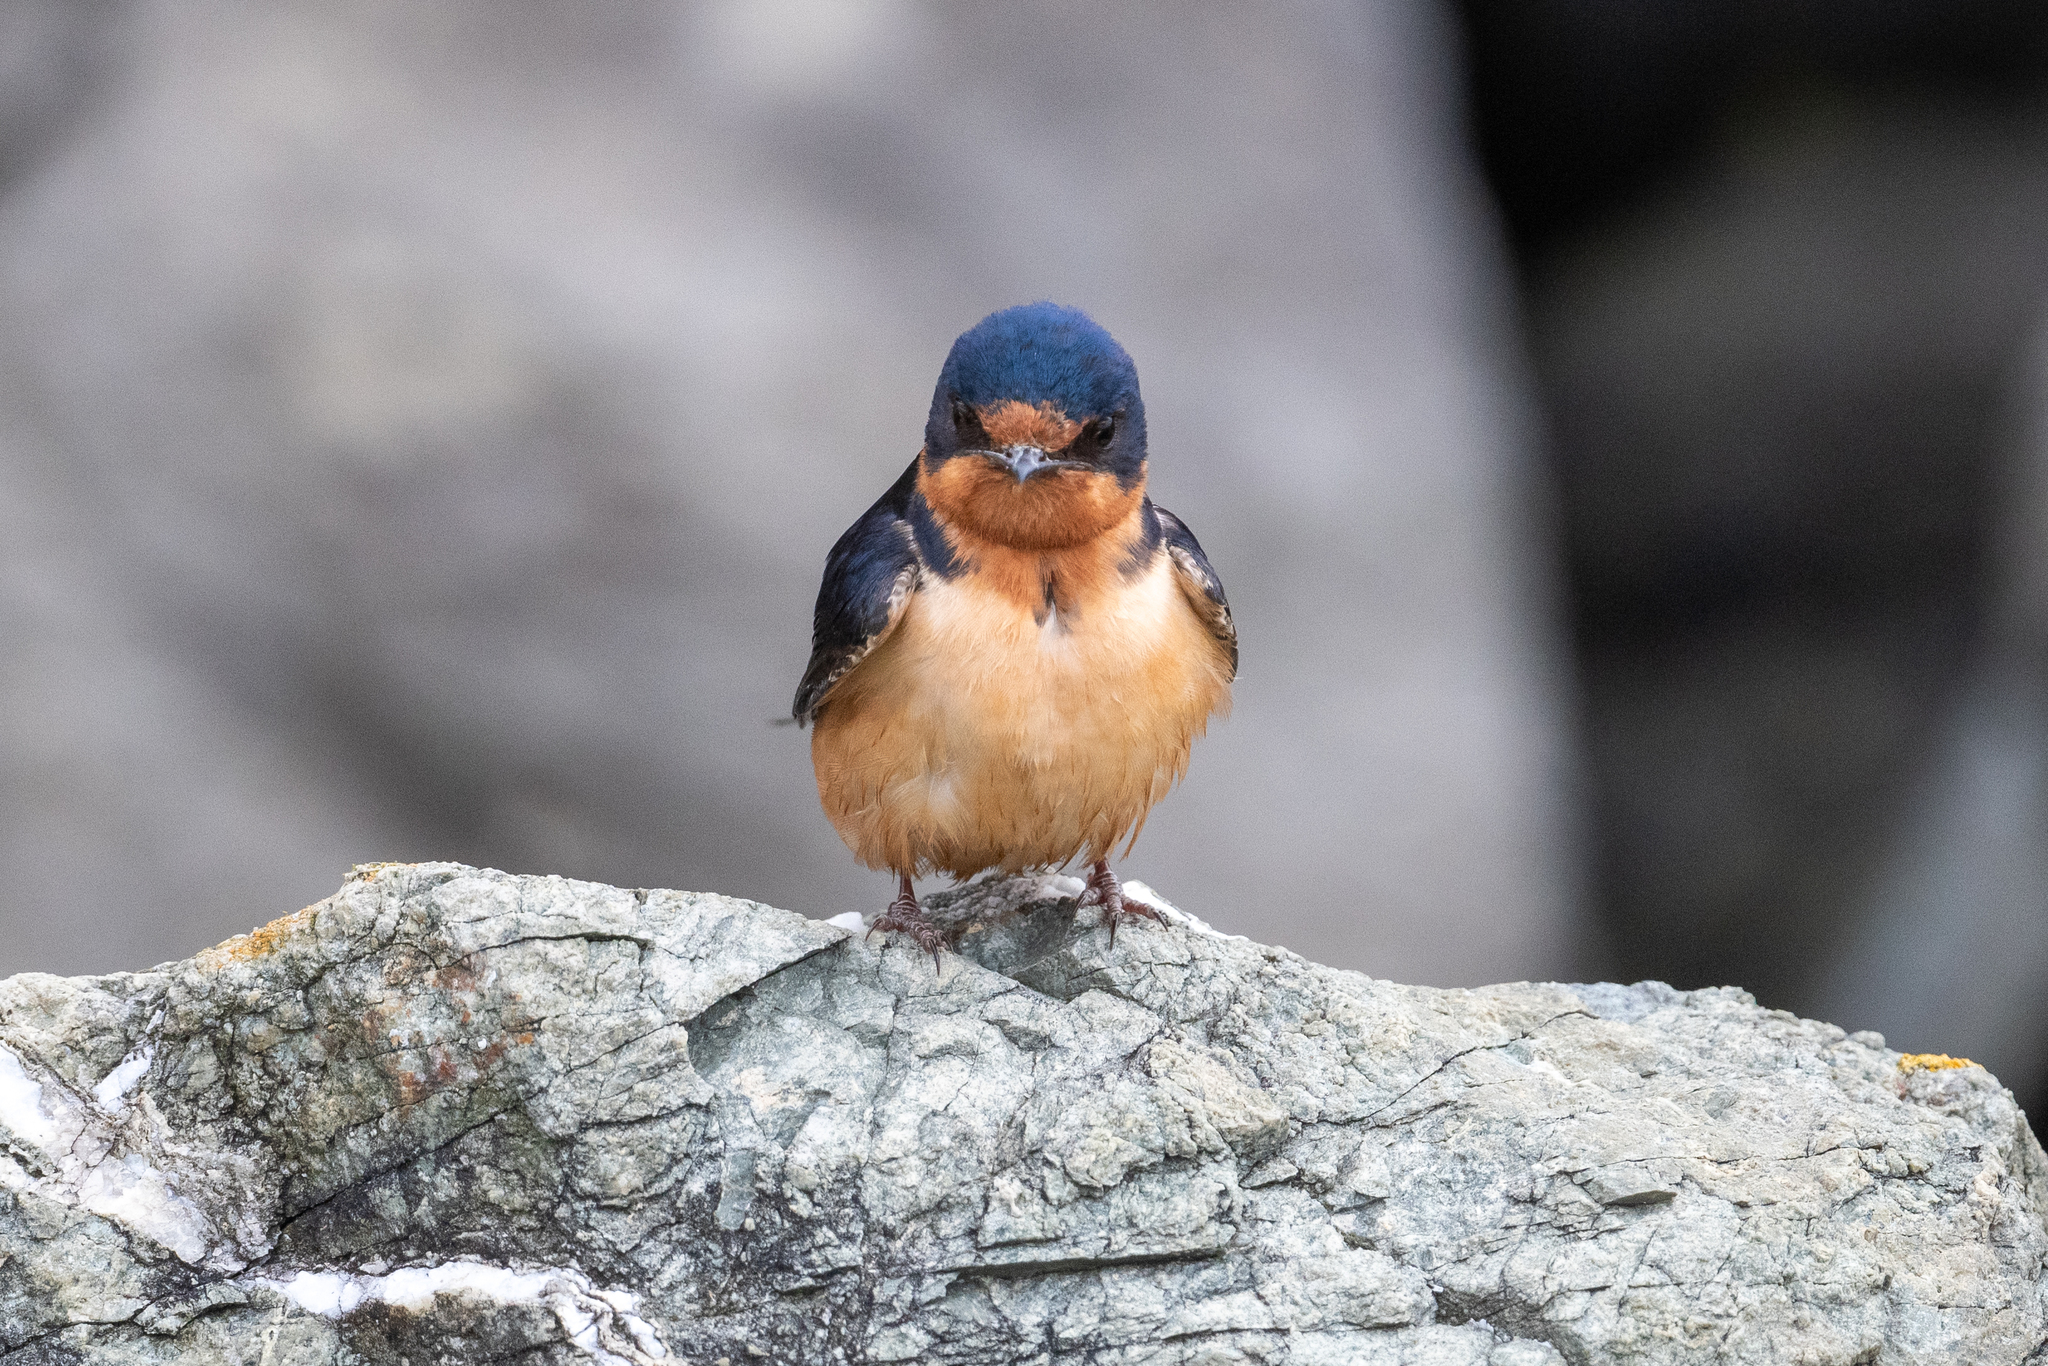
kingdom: Animalia
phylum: Chordata
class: Aves
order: Passeriformes
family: Hirundinidae
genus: Hirundo
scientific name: Hirundo rustica
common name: Barn swallow
